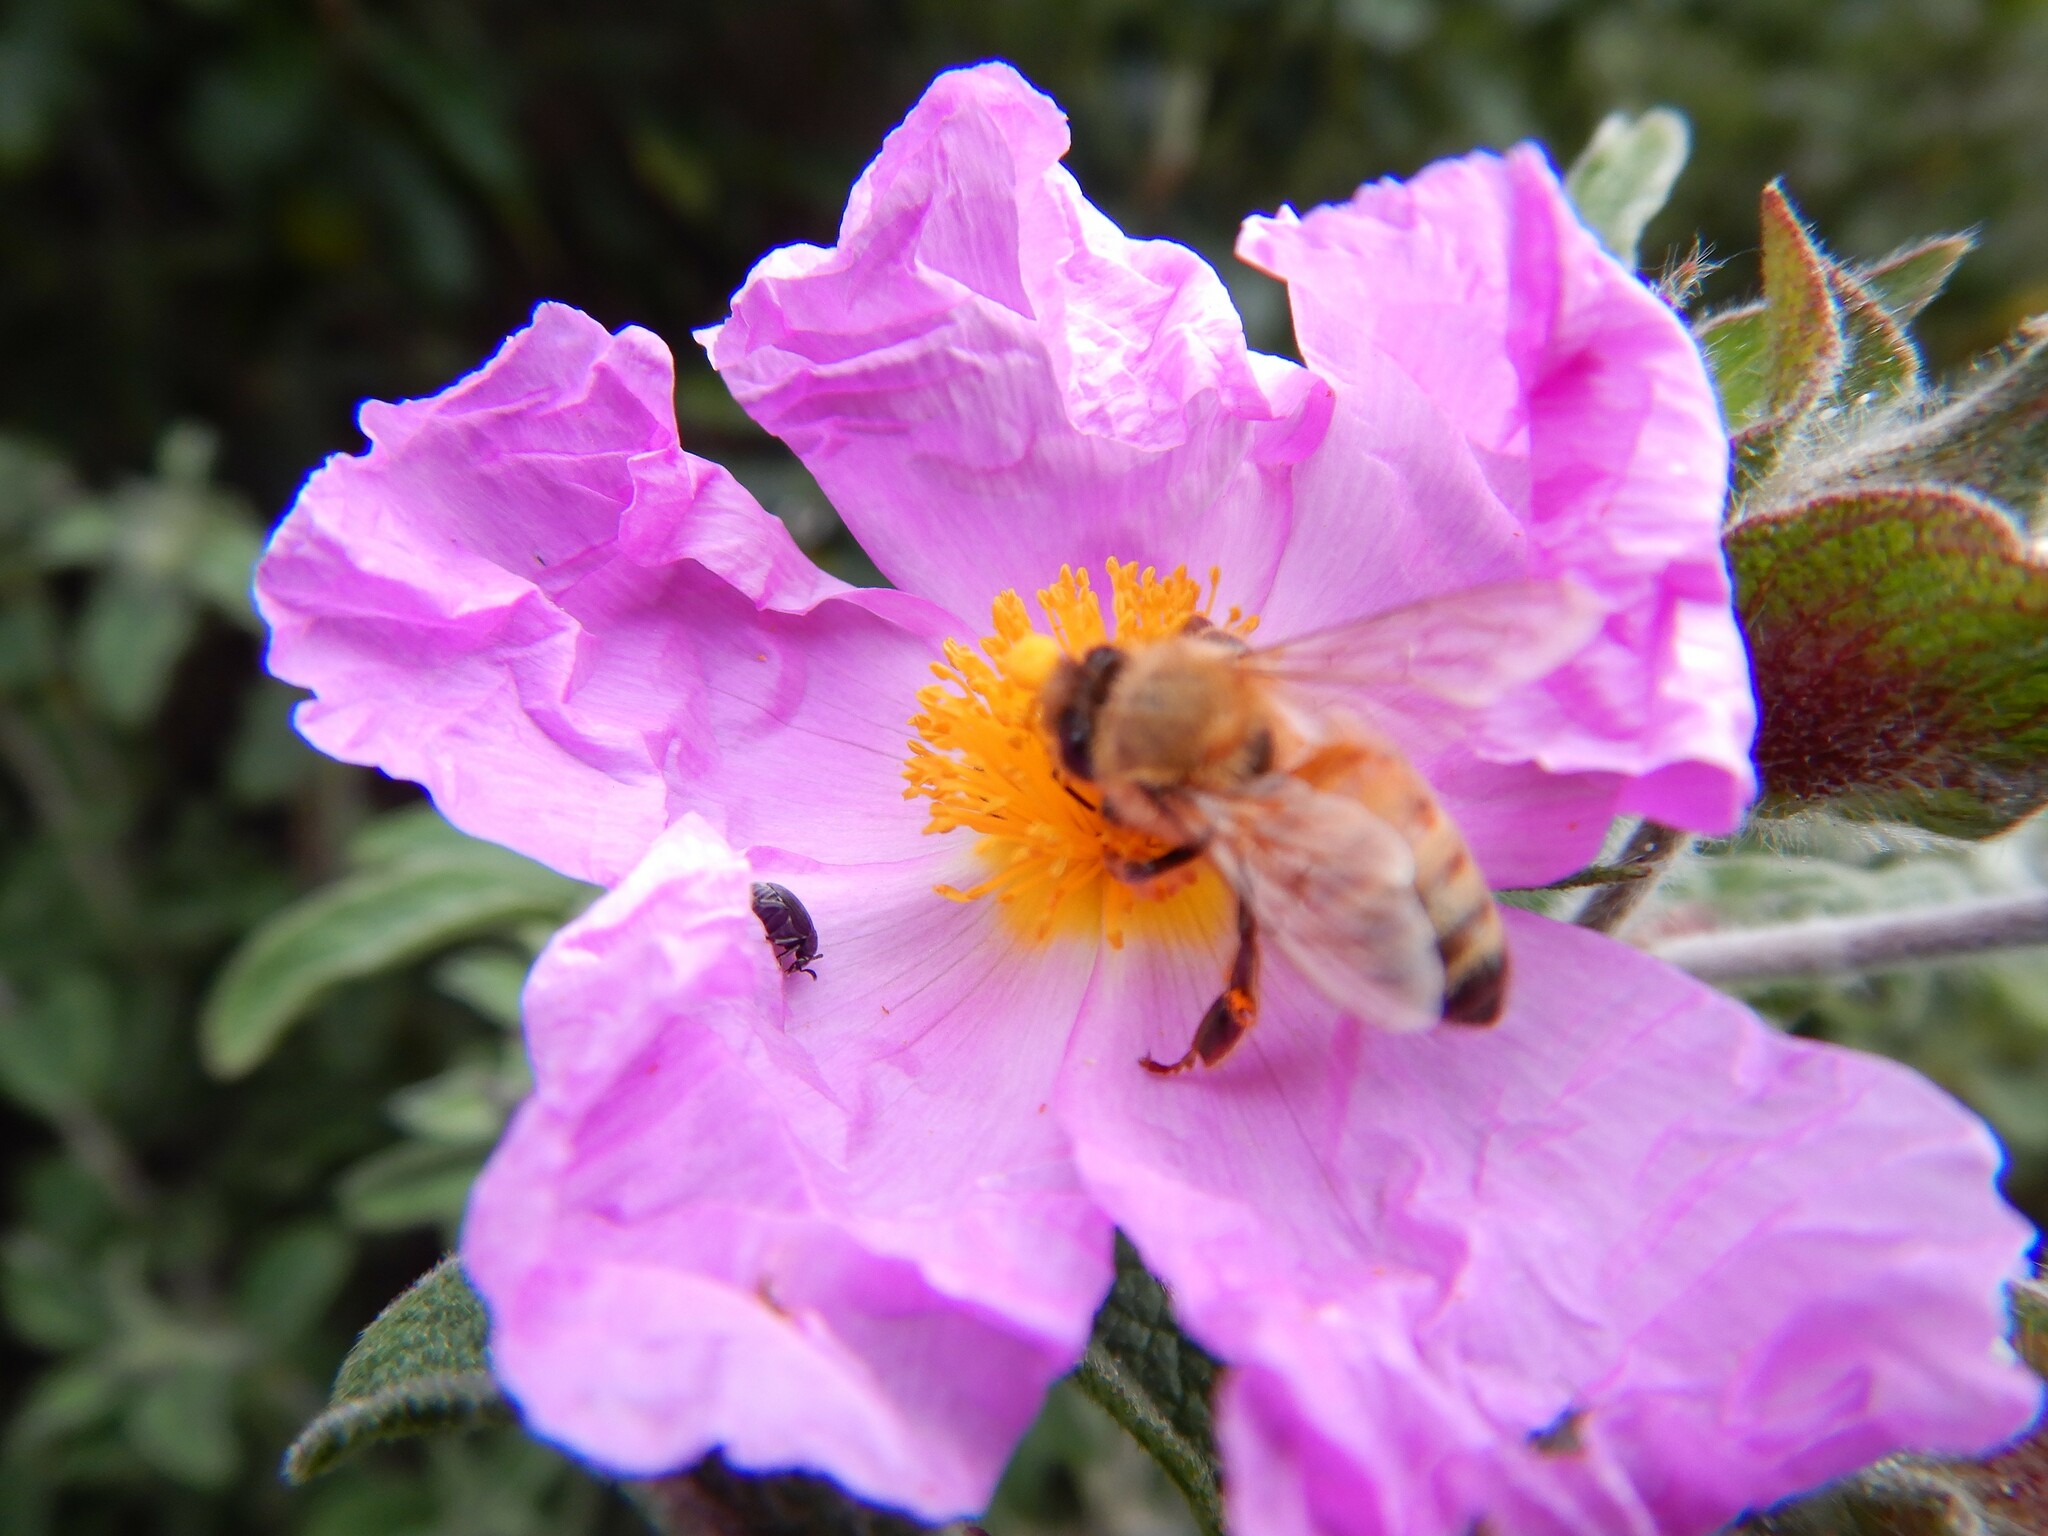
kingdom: Animalia
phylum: Arthropoda
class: Insecta
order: Hymenoptera
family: Apidae
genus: Apis
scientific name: Apis mellifera
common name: Honey bee
